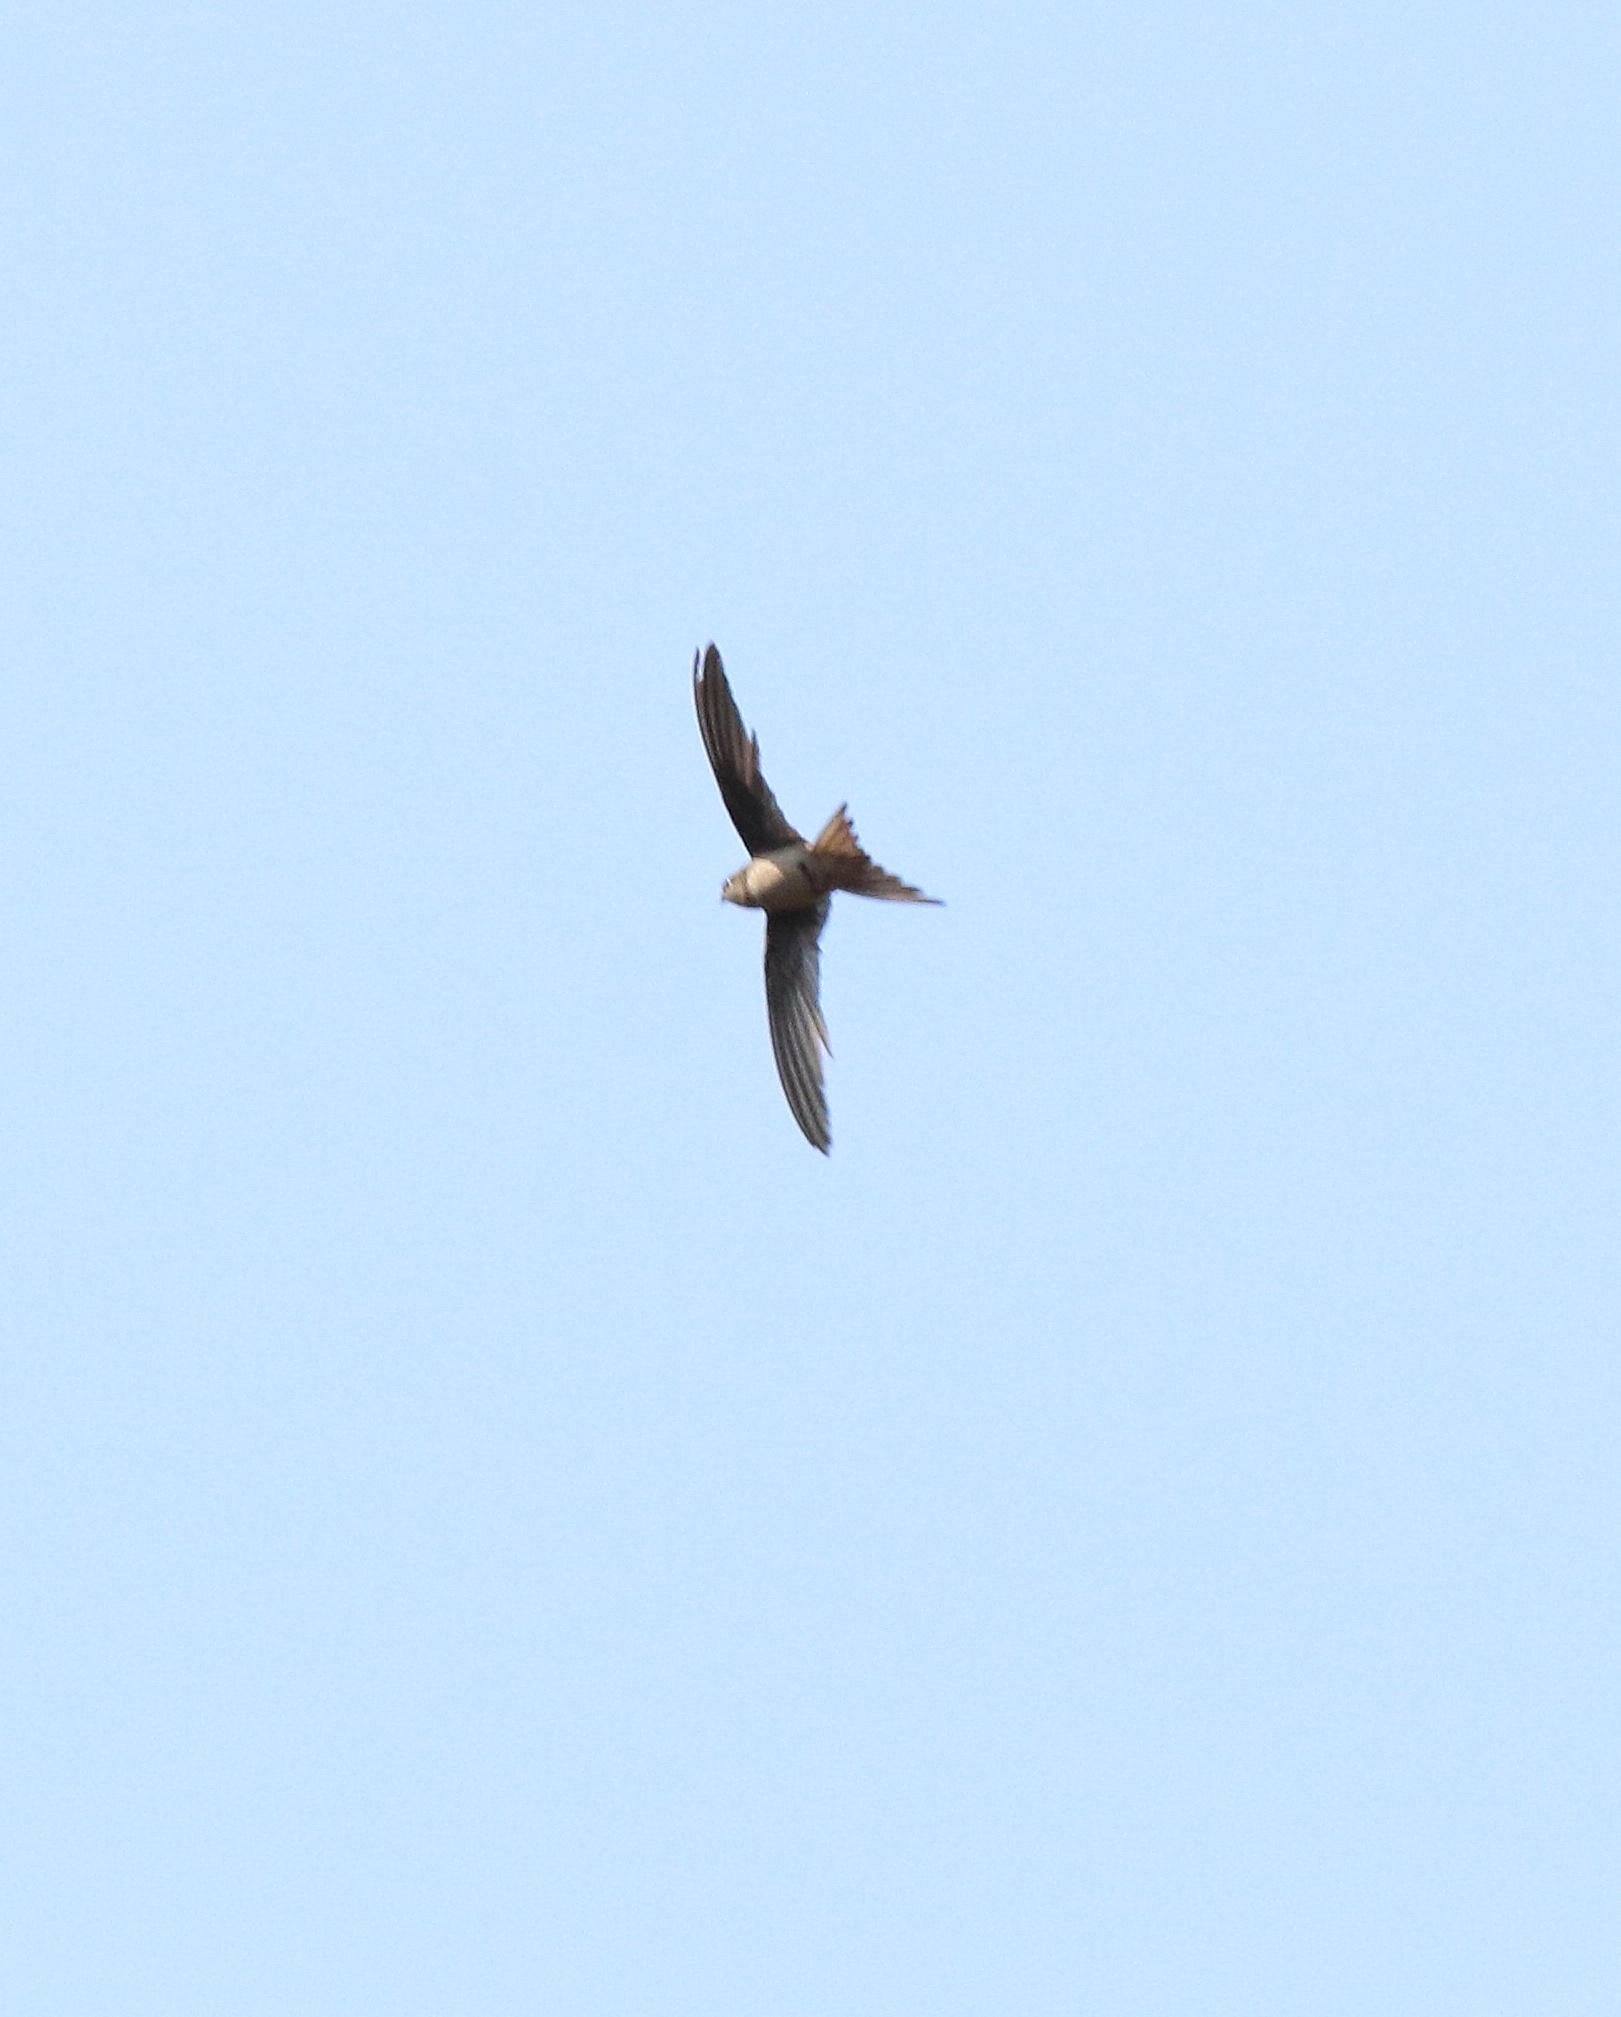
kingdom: Animalia
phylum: Chordata
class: Aves
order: Apodiformes
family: Apodidae
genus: Cypsiurus
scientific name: Cypsiurus balasiensis
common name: Asian palm swift
